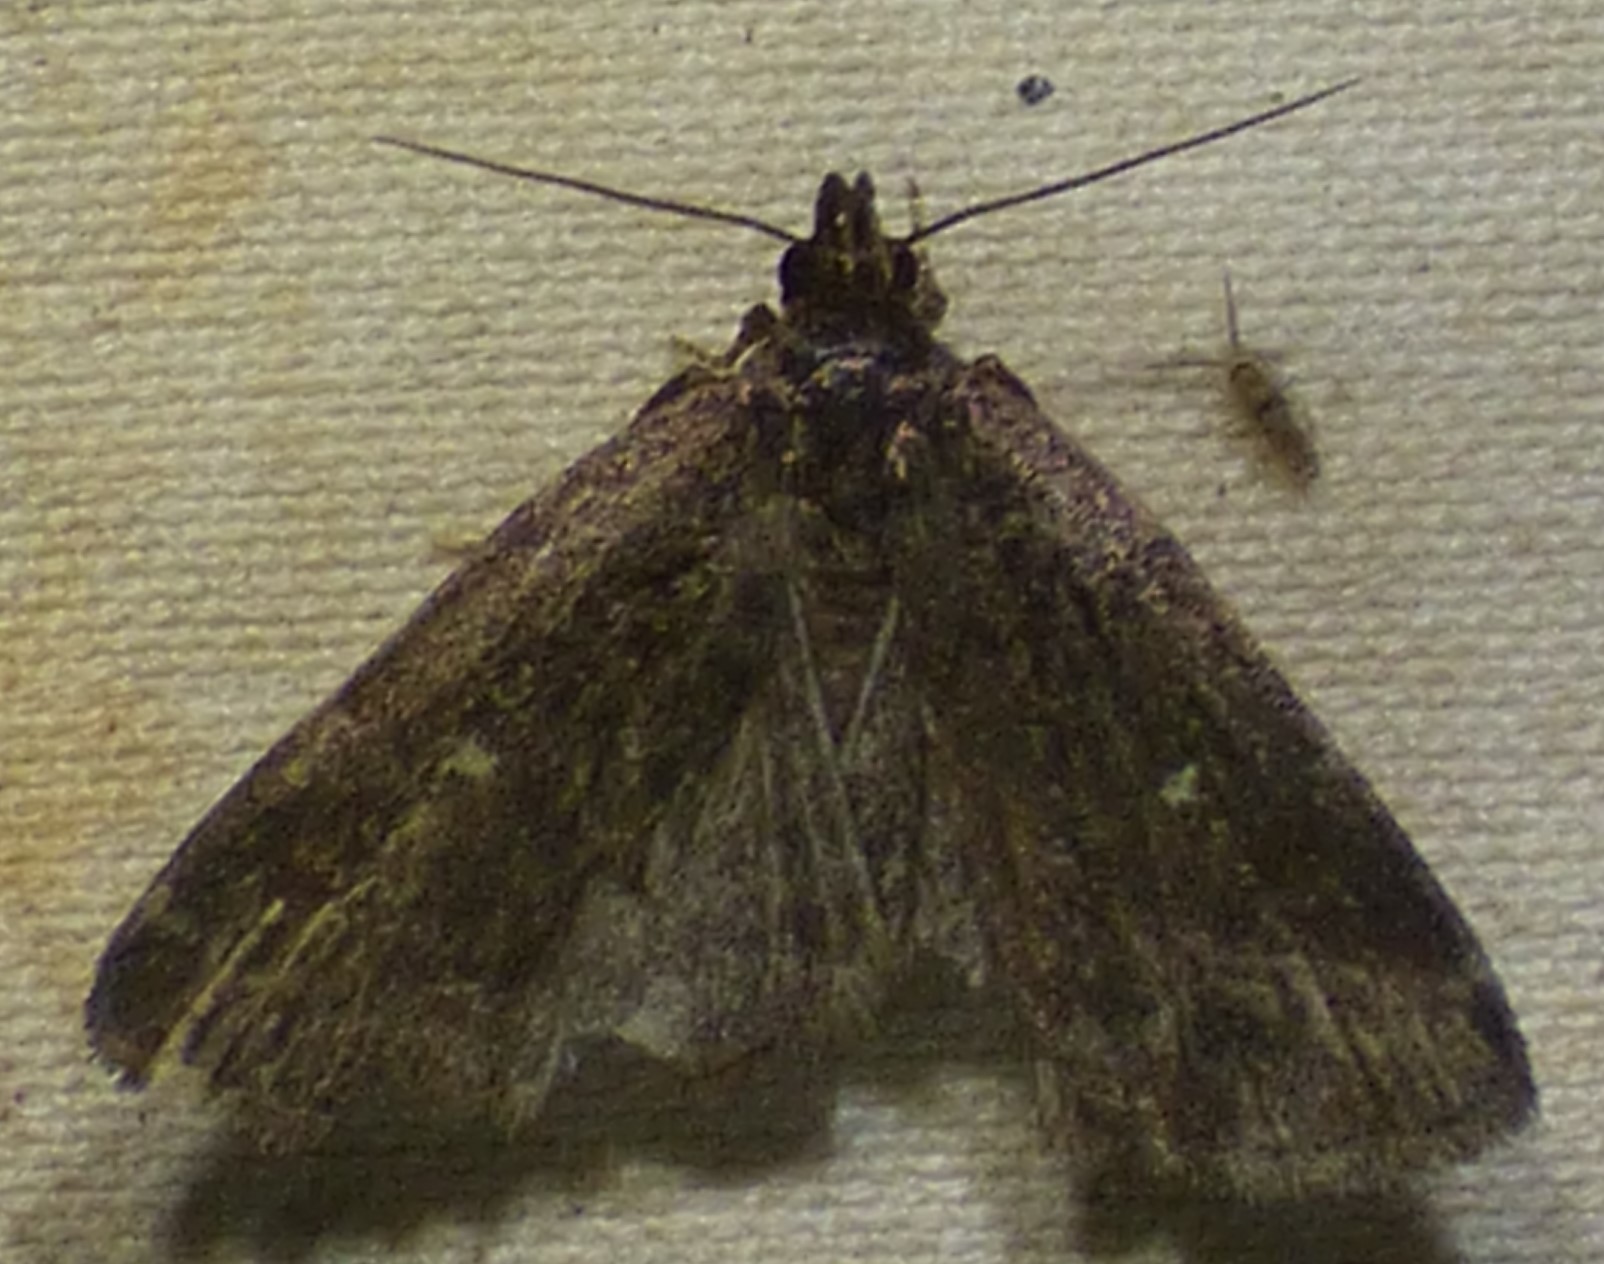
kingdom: Animalia
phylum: Arthropoda
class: Insecta
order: Lepidoptera
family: Erebidae
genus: Idia
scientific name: Idia julia
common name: Julia's idia moth
